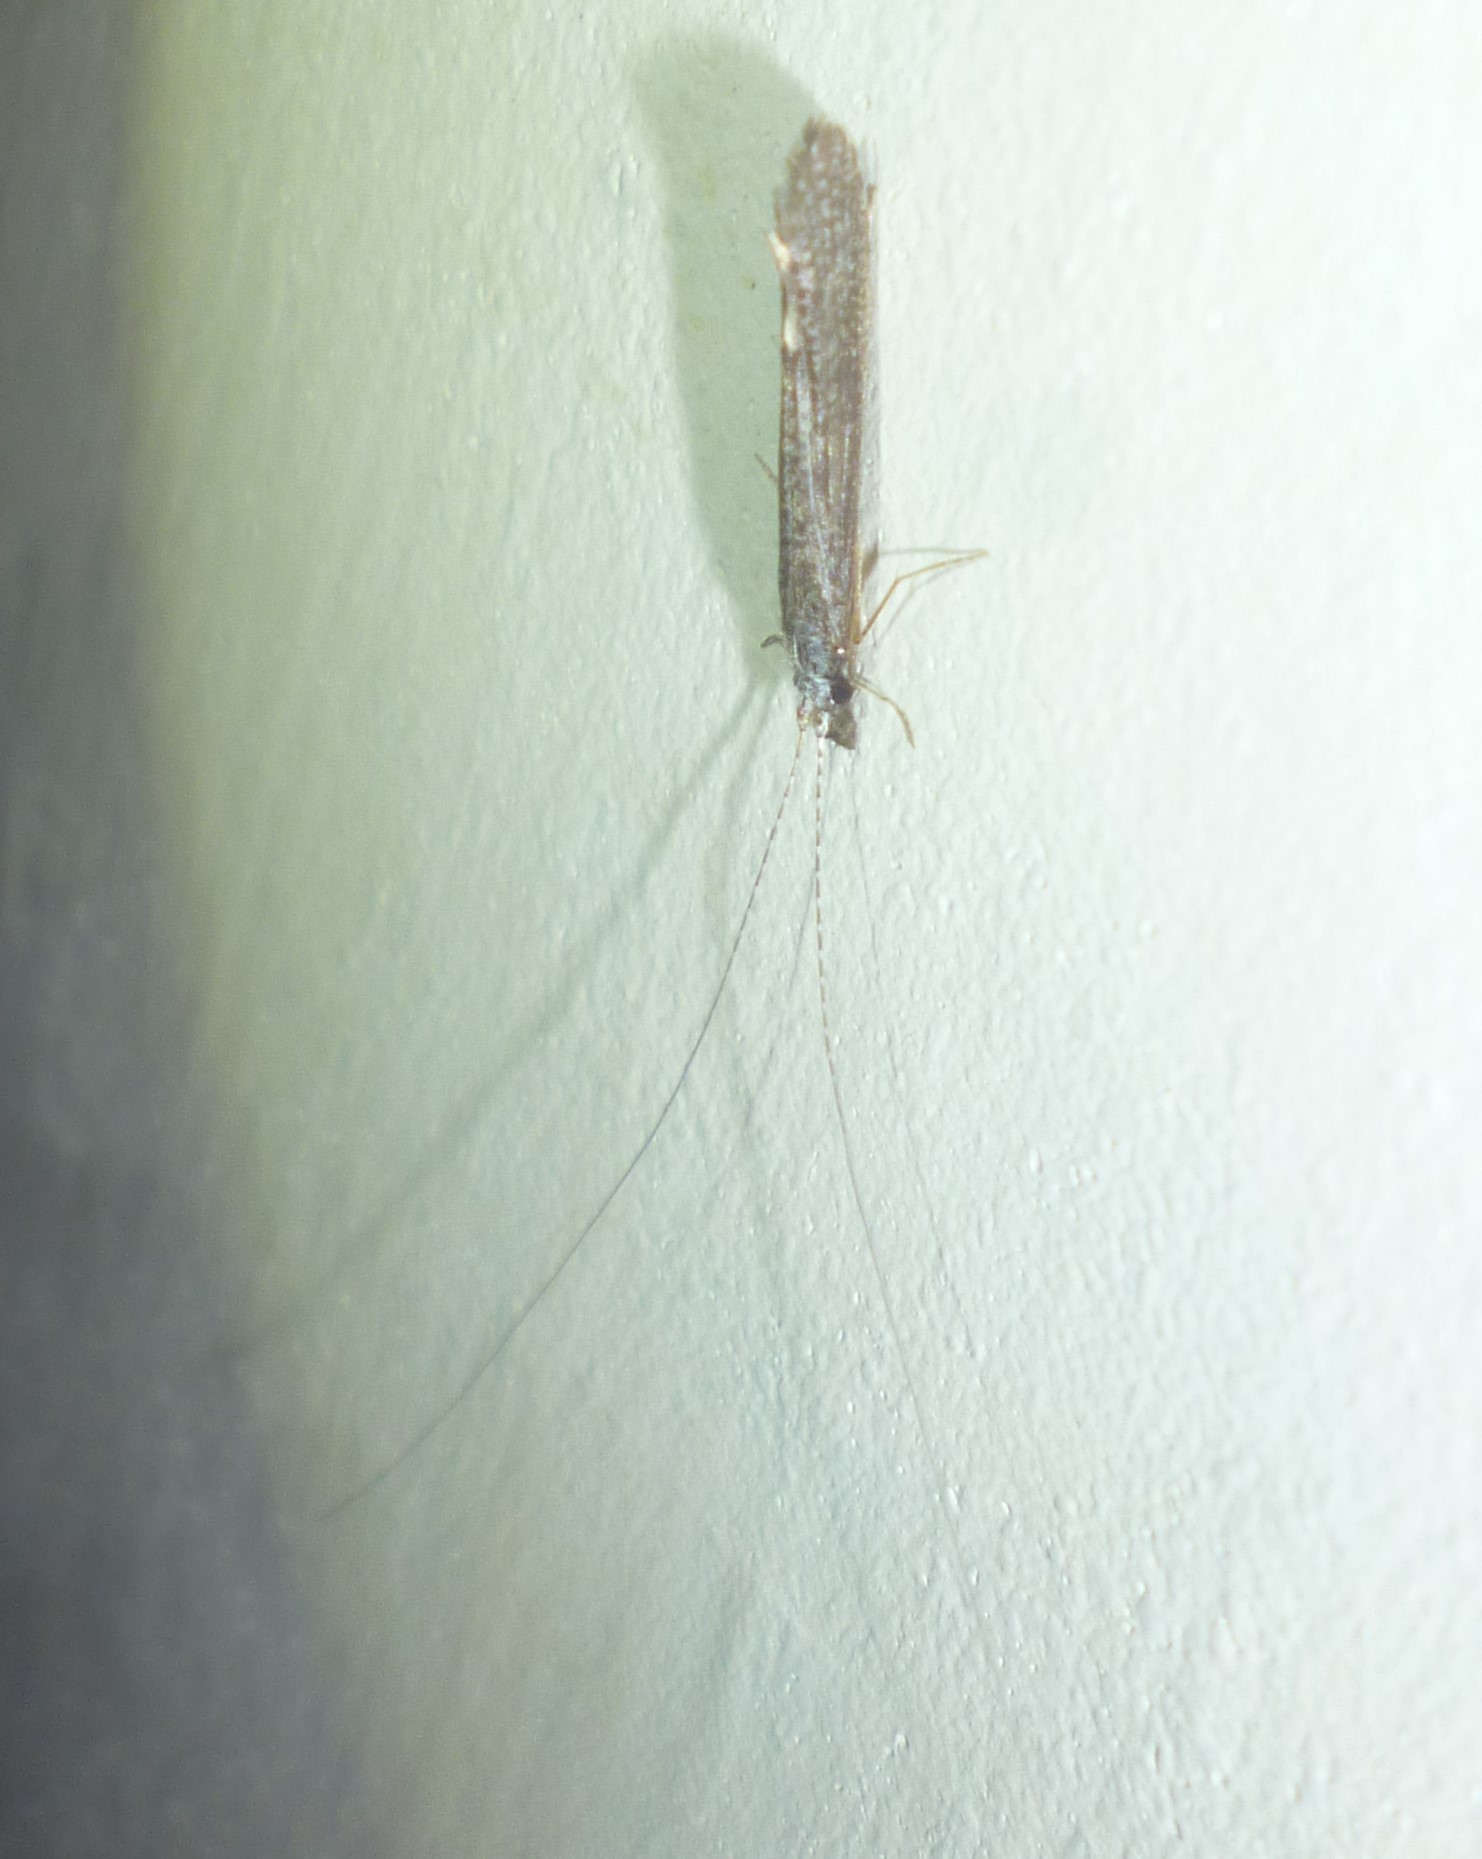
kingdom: Animalia
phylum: Arthropoda
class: Insecta
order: Trichoptera
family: Leptoceridae
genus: Leptocerus
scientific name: Leptocerus americanus
